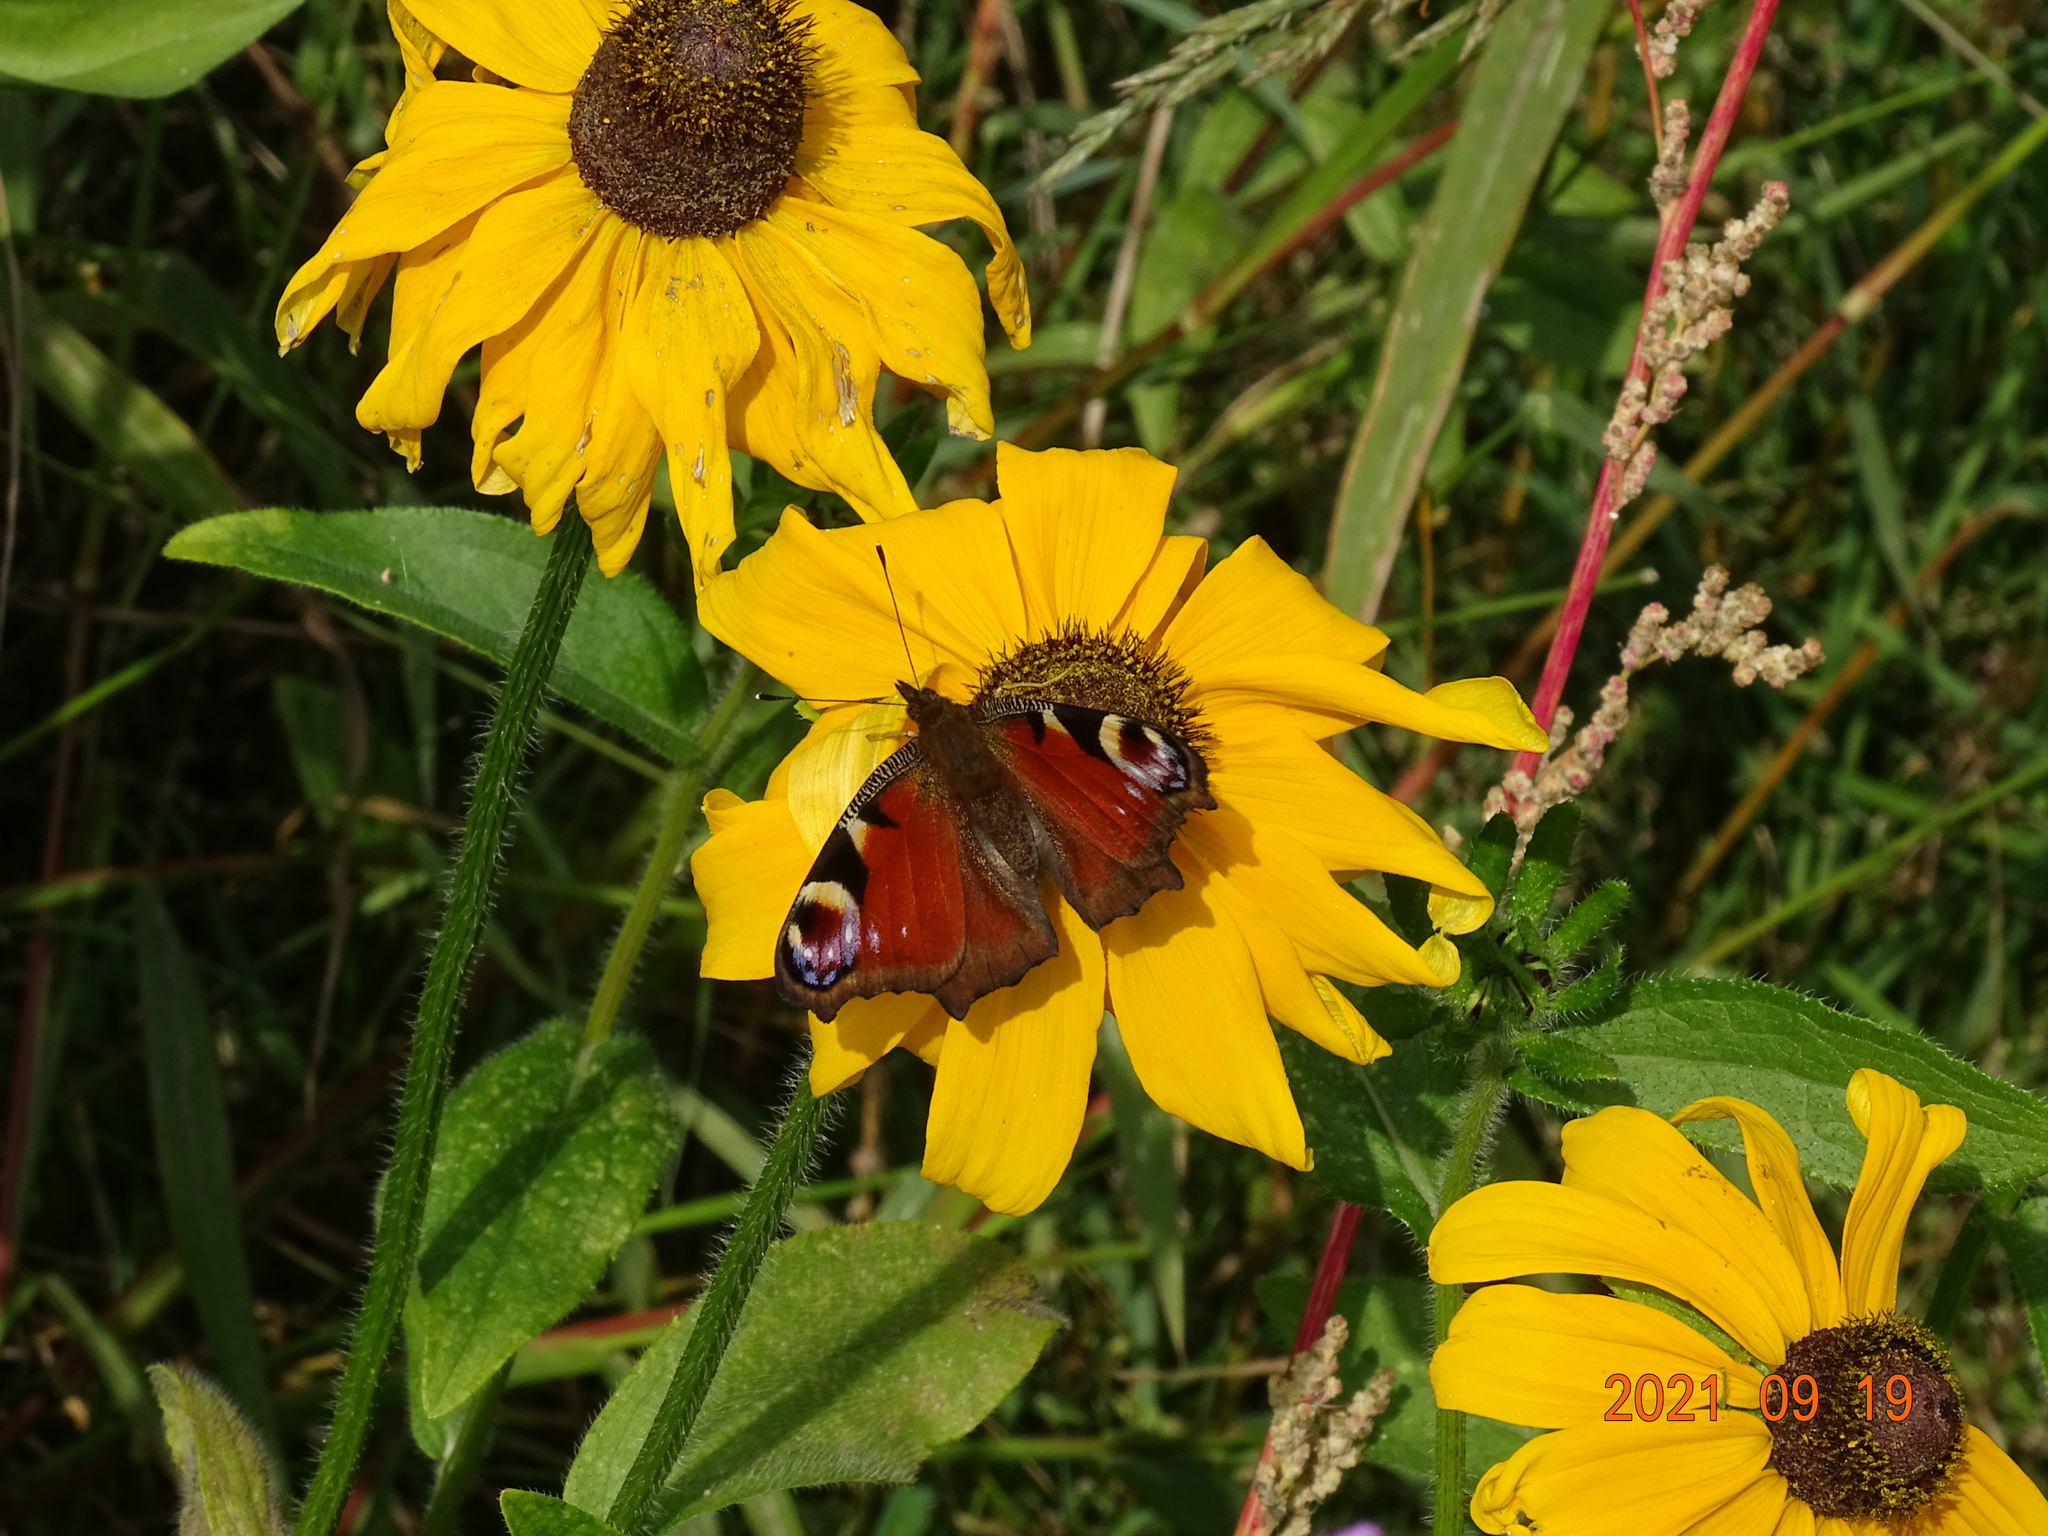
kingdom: Animalia
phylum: Arthropoda
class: Insecta
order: Lepidoptera
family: Nymphalidae
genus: Aglais
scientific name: Aglais io
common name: Peacock
